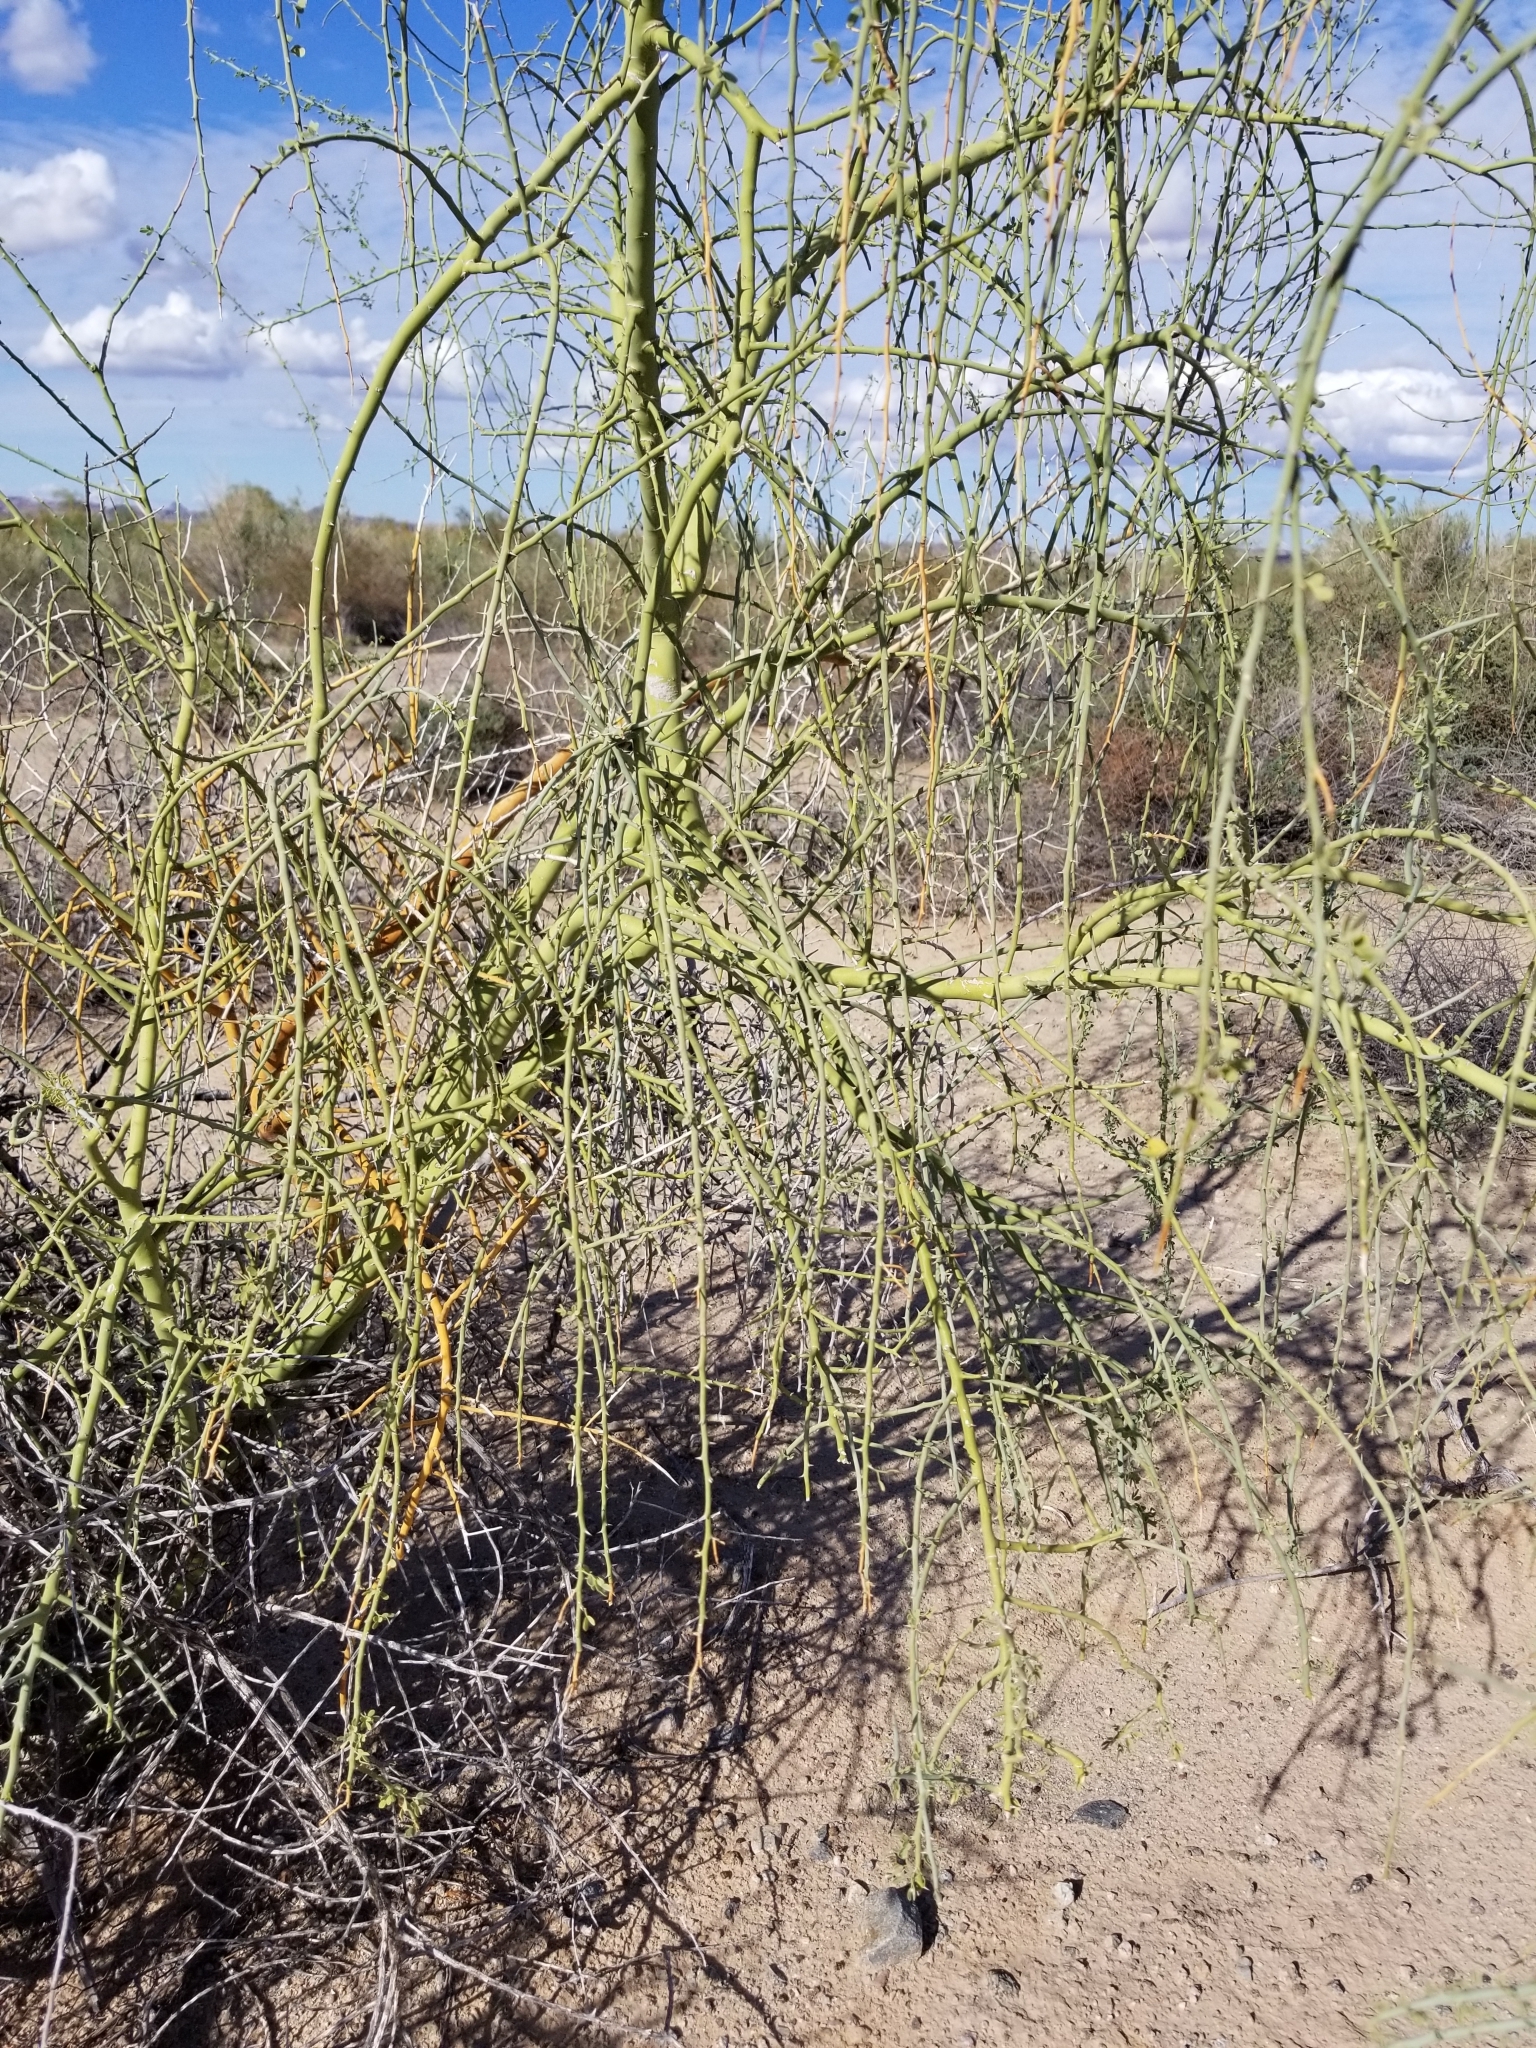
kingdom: Plantae
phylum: Tracheophyta
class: Magnoliopsida
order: Fabales
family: Fabaceae
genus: Parkinsonia
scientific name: Parkinsonia florida
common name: Blue paloverde
